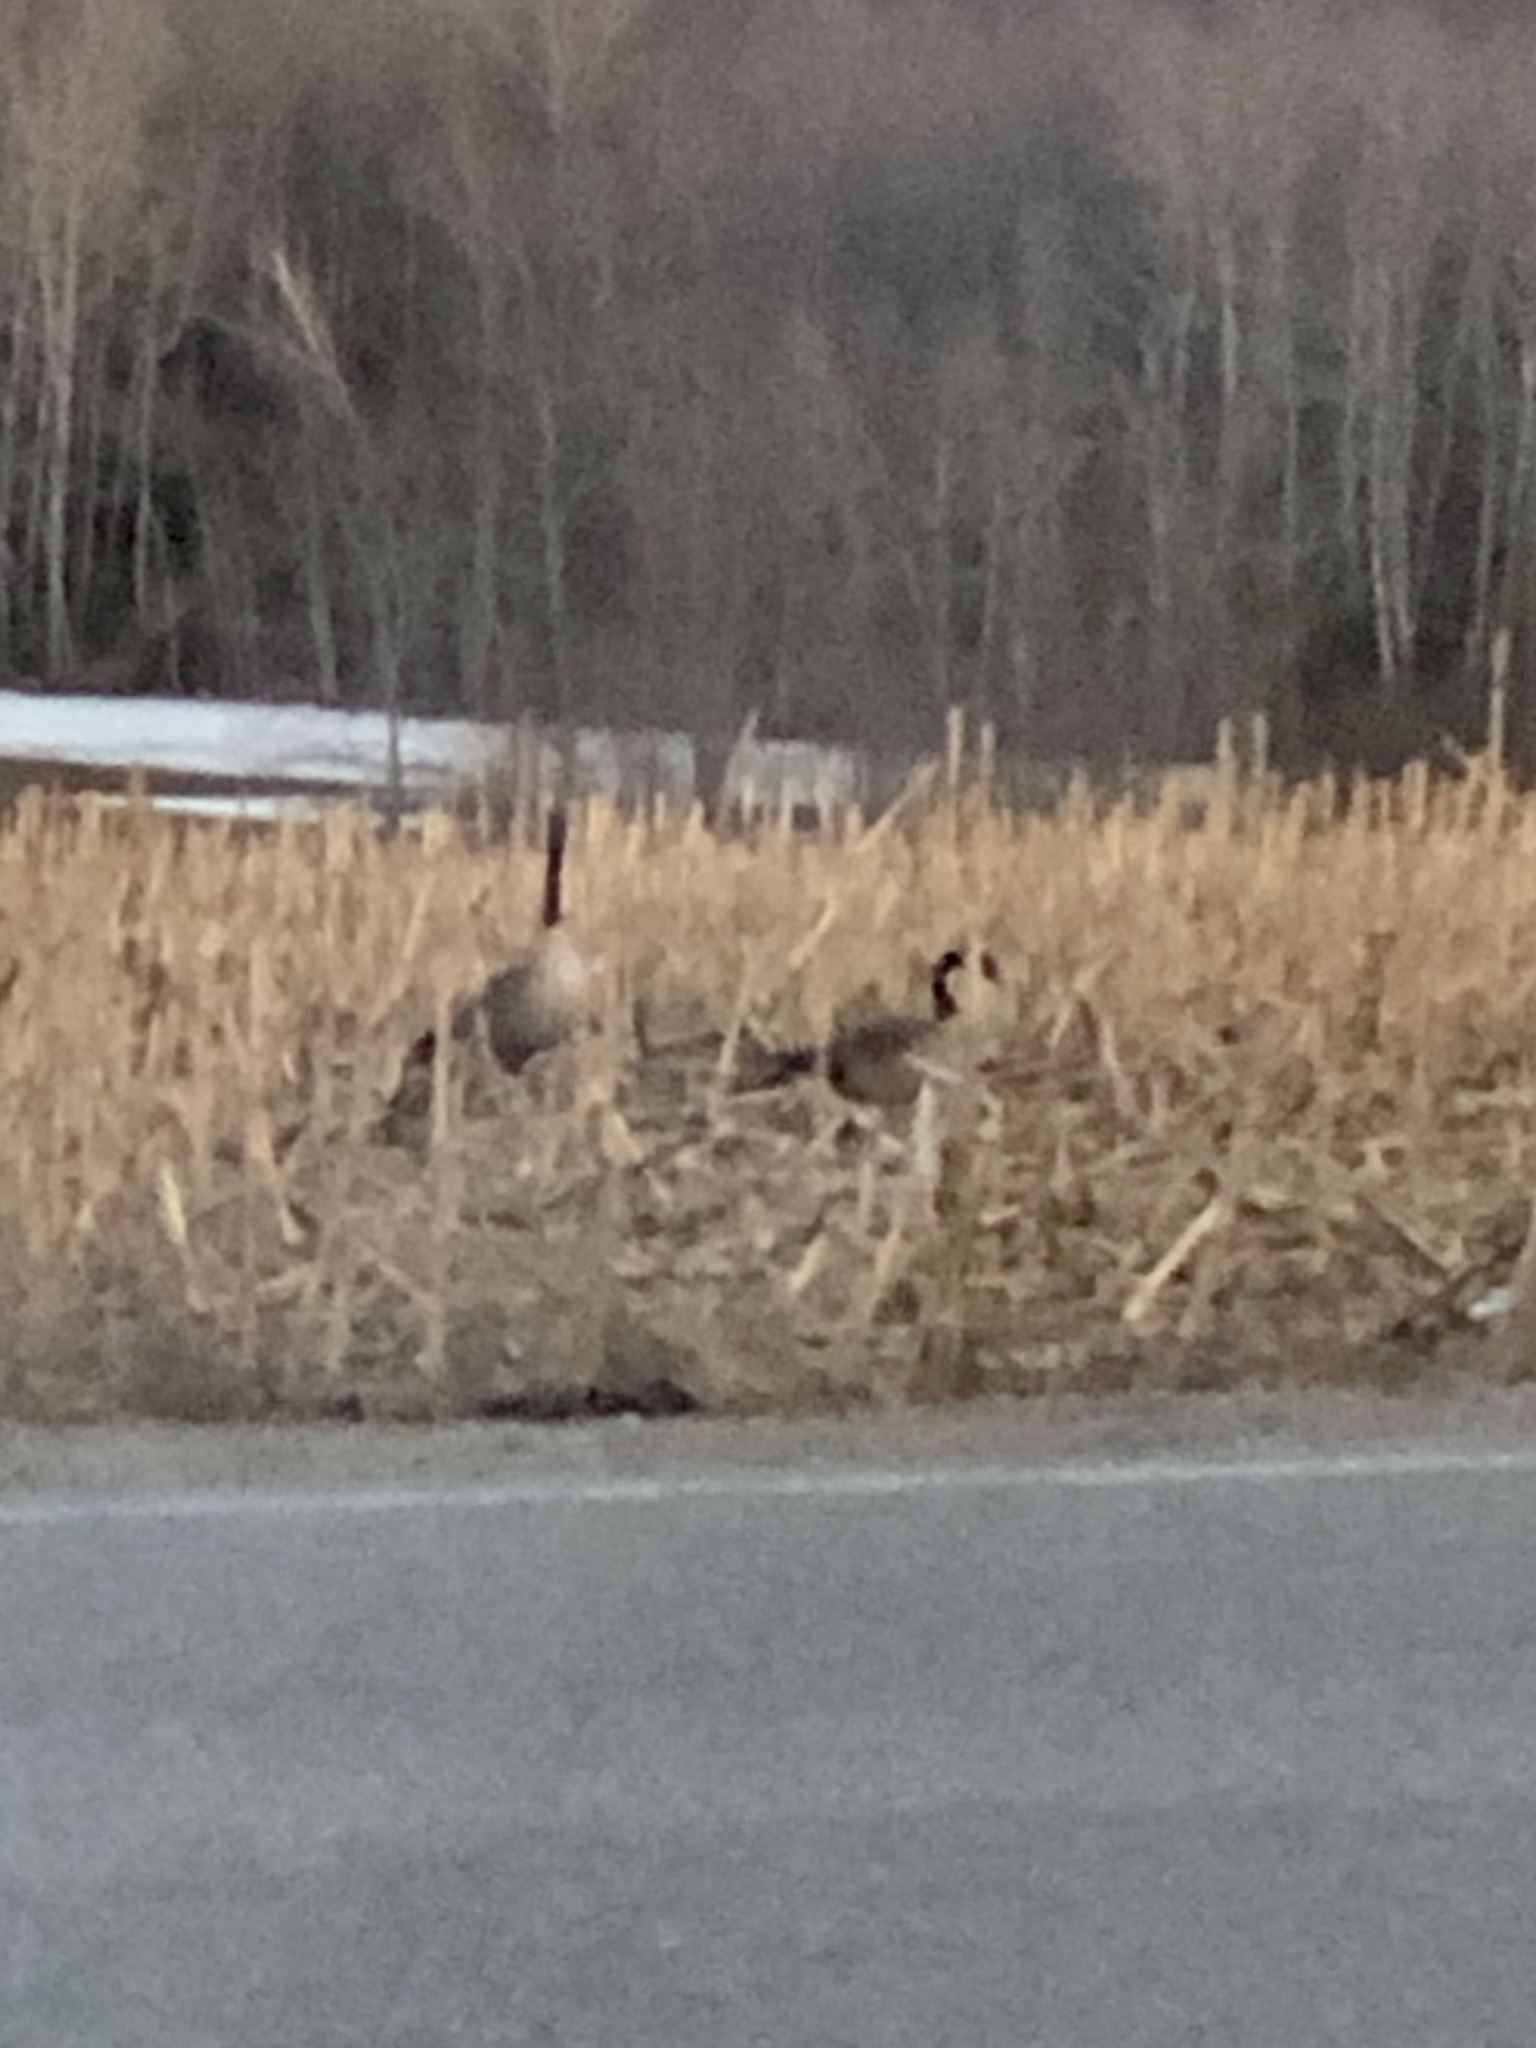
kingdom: Animalia
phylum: Chordata
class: Aves
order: Anseriformes
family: Anatidae
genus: Branta
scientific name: Branta canadensis
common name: Canada goose
